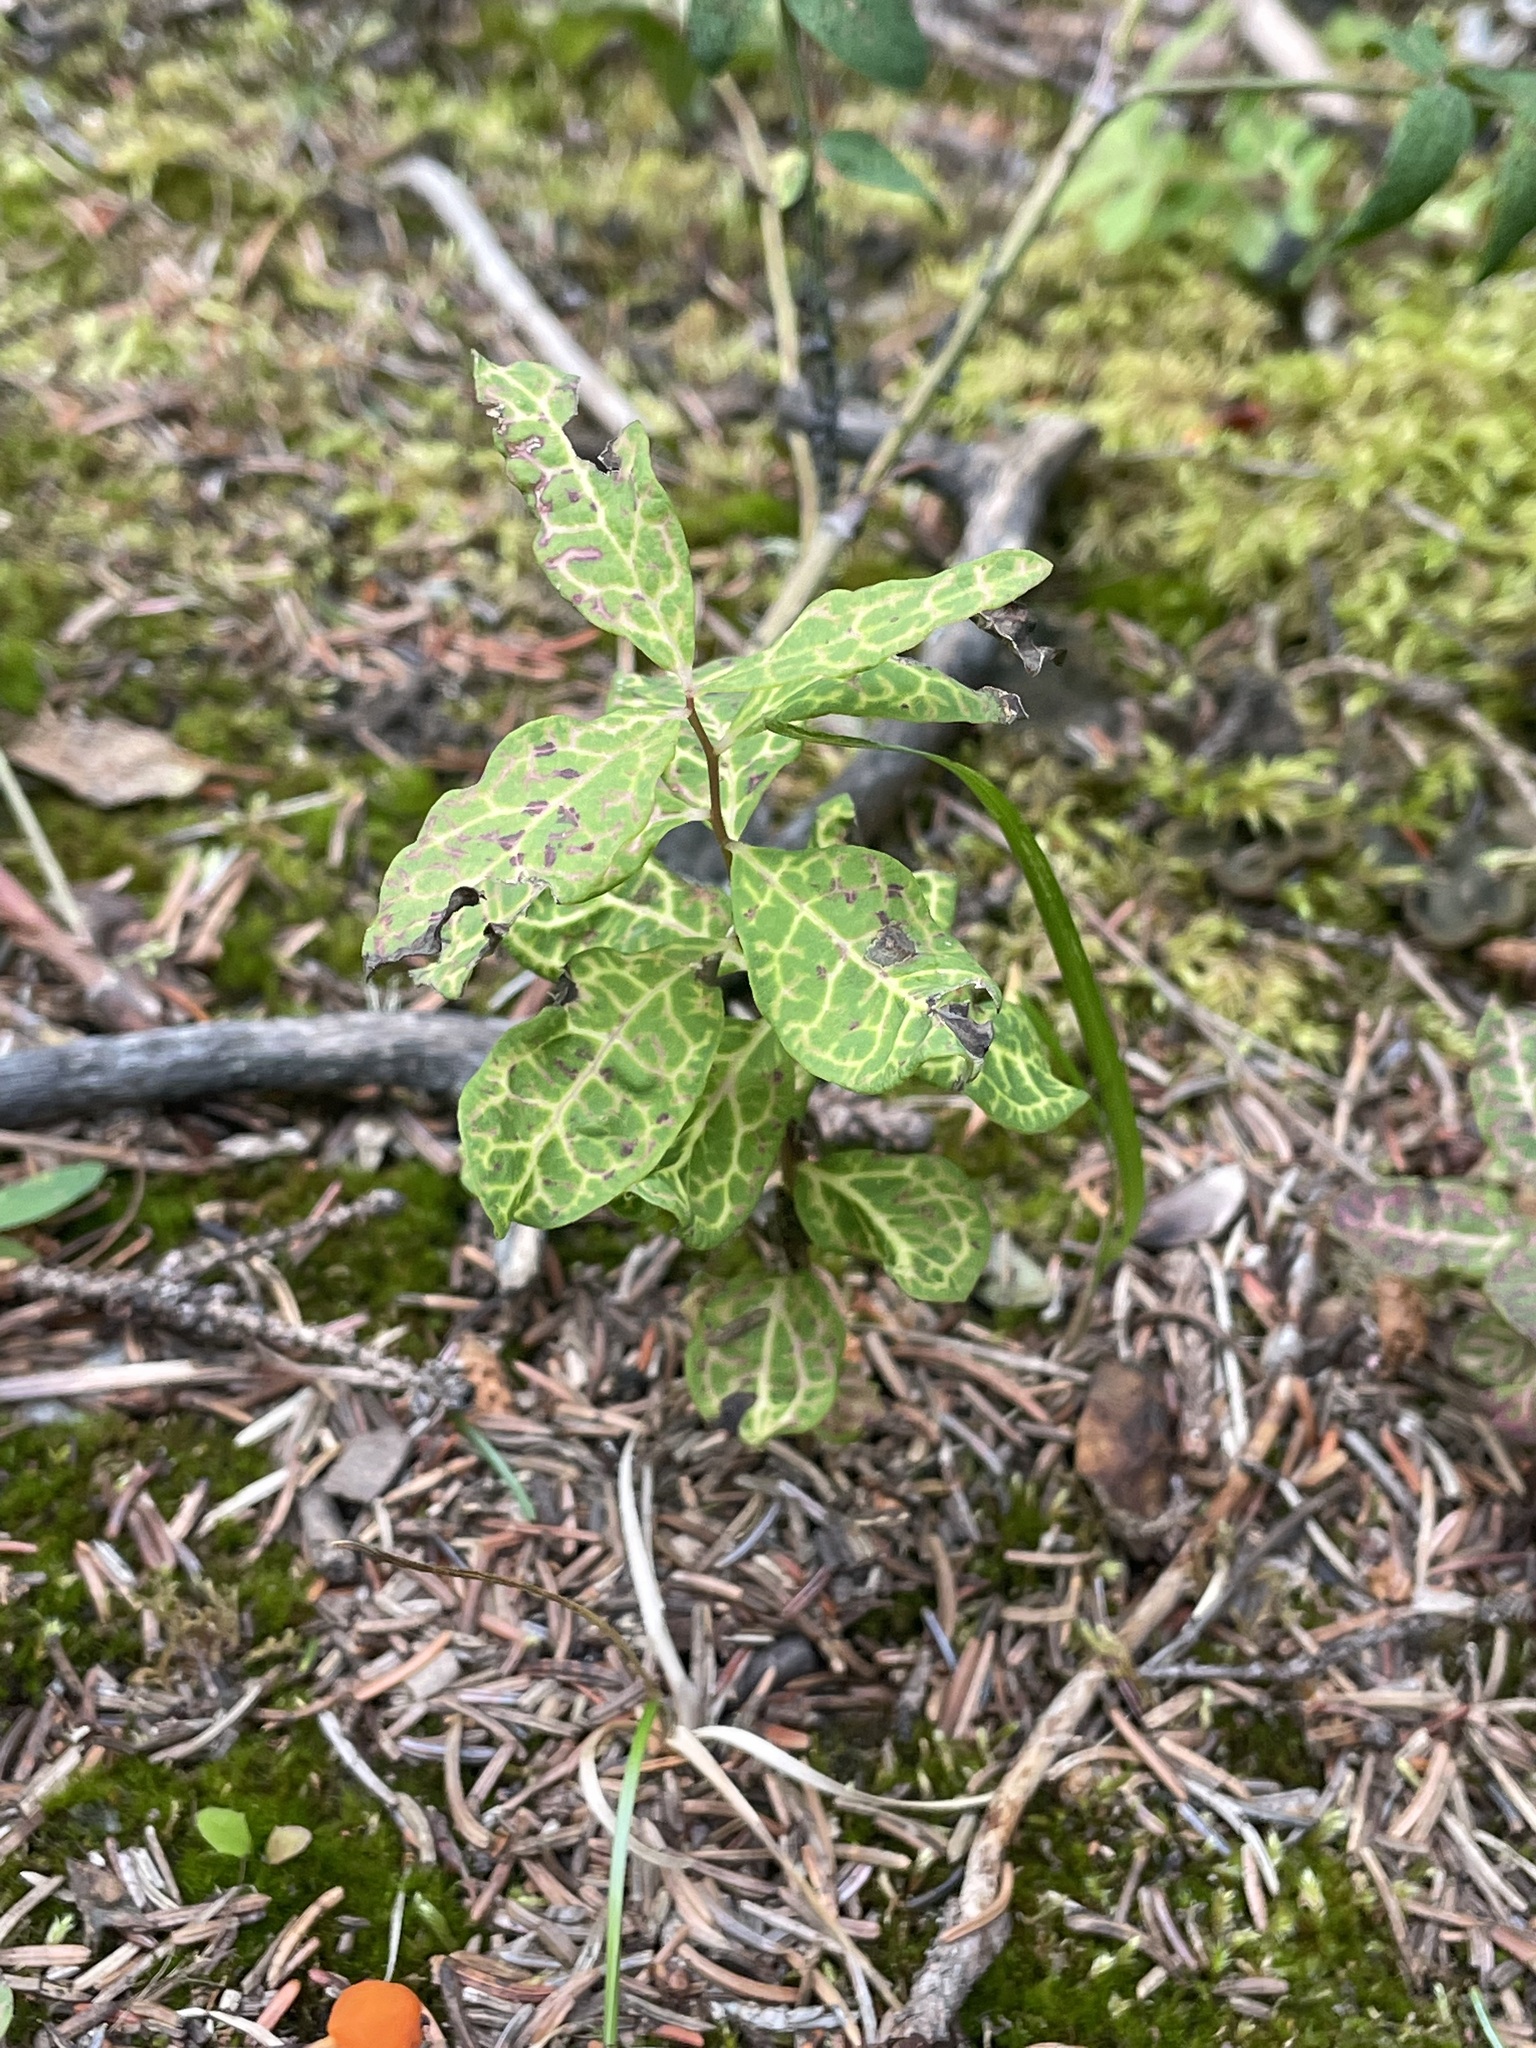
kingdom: Plantae
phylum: Tracheophyta
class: Magnoliopsida
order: Santalales
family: Comandraceae
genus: Geocaulon
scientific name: Geocaulon lividum
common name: Earthberry
